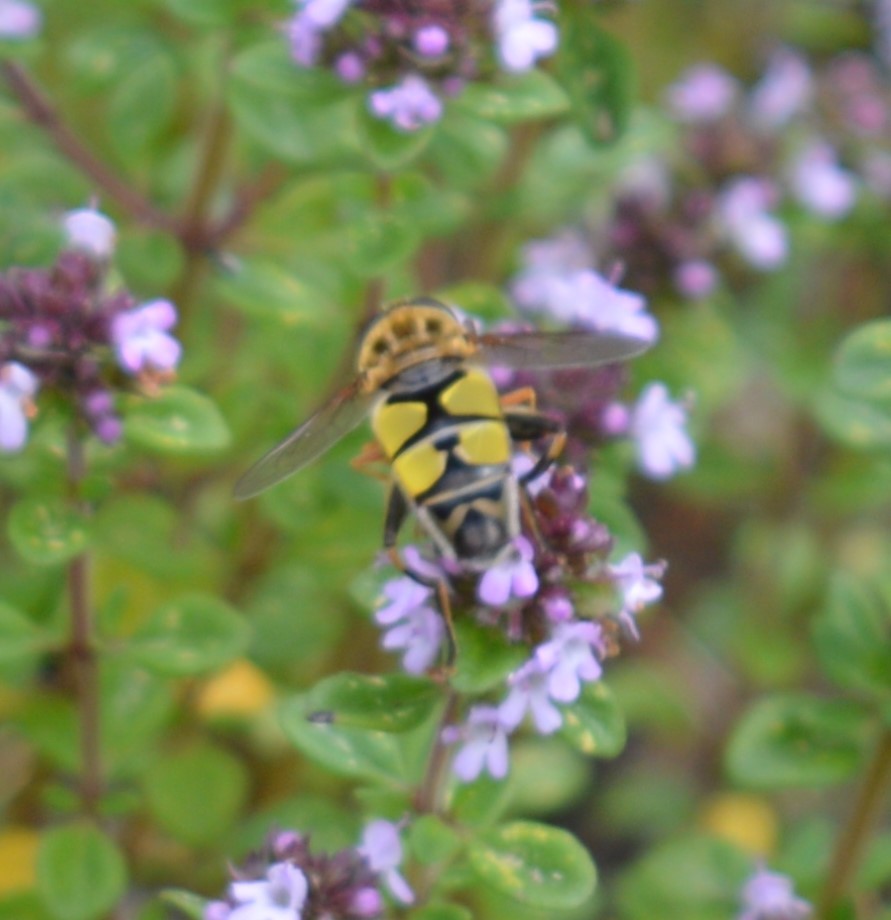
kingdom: Animalia
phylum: Arthropoda
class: Insecta
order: Diptera
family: Syrphidae
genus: Helophilus
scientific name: Helophilus trivittatus
